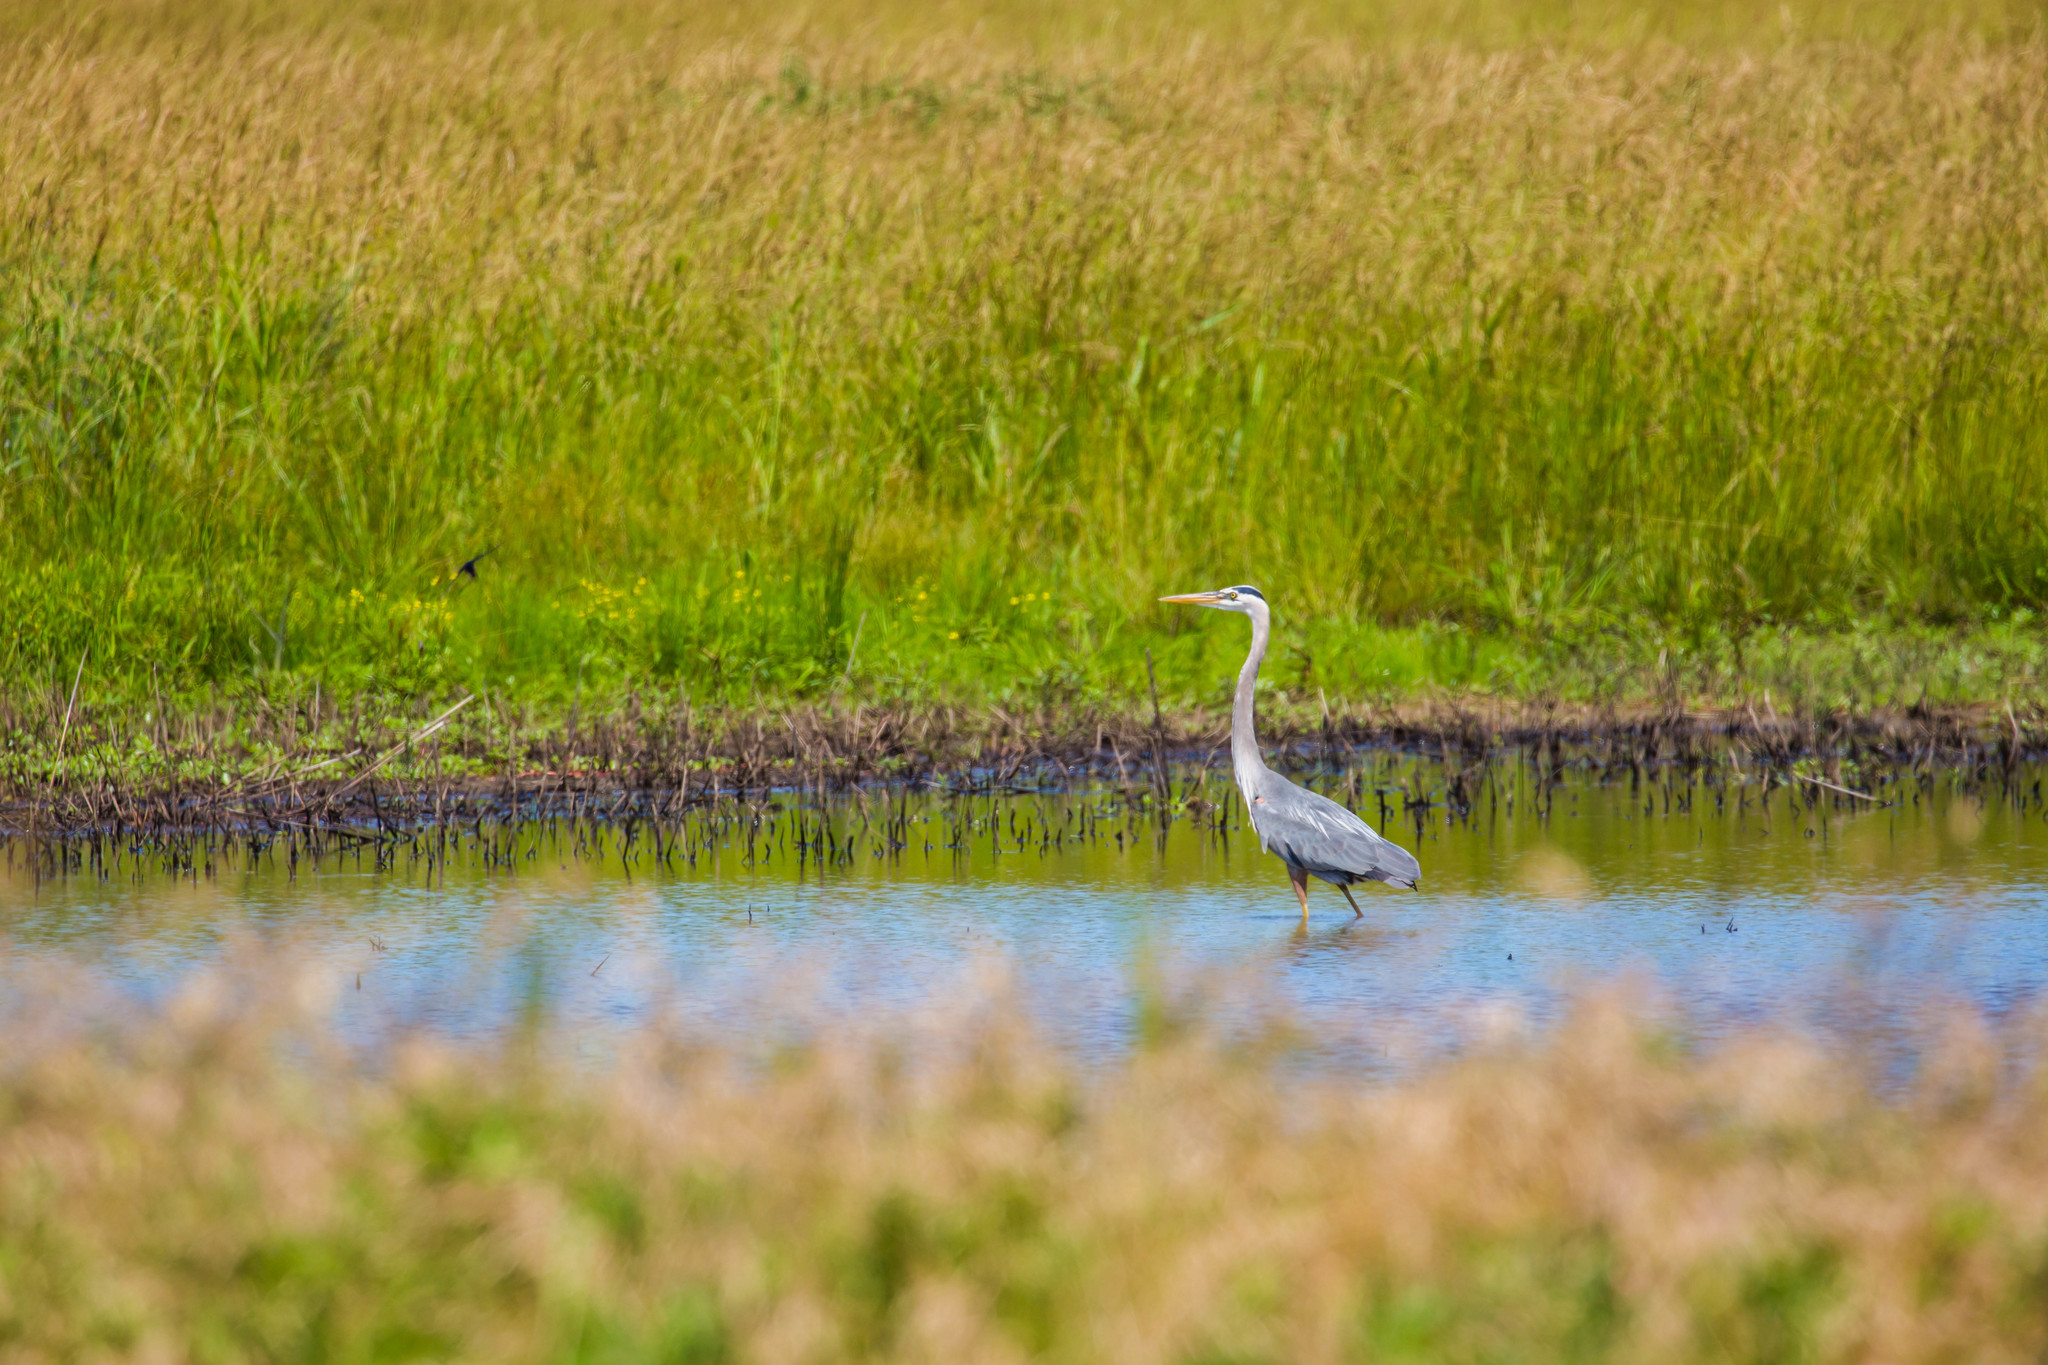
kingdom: Animalia
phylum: Chordata
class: Aves
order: Pelecaniformes
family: Ardeidae
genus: Ardea
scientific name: Ardea herodias
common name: Great blue heron
